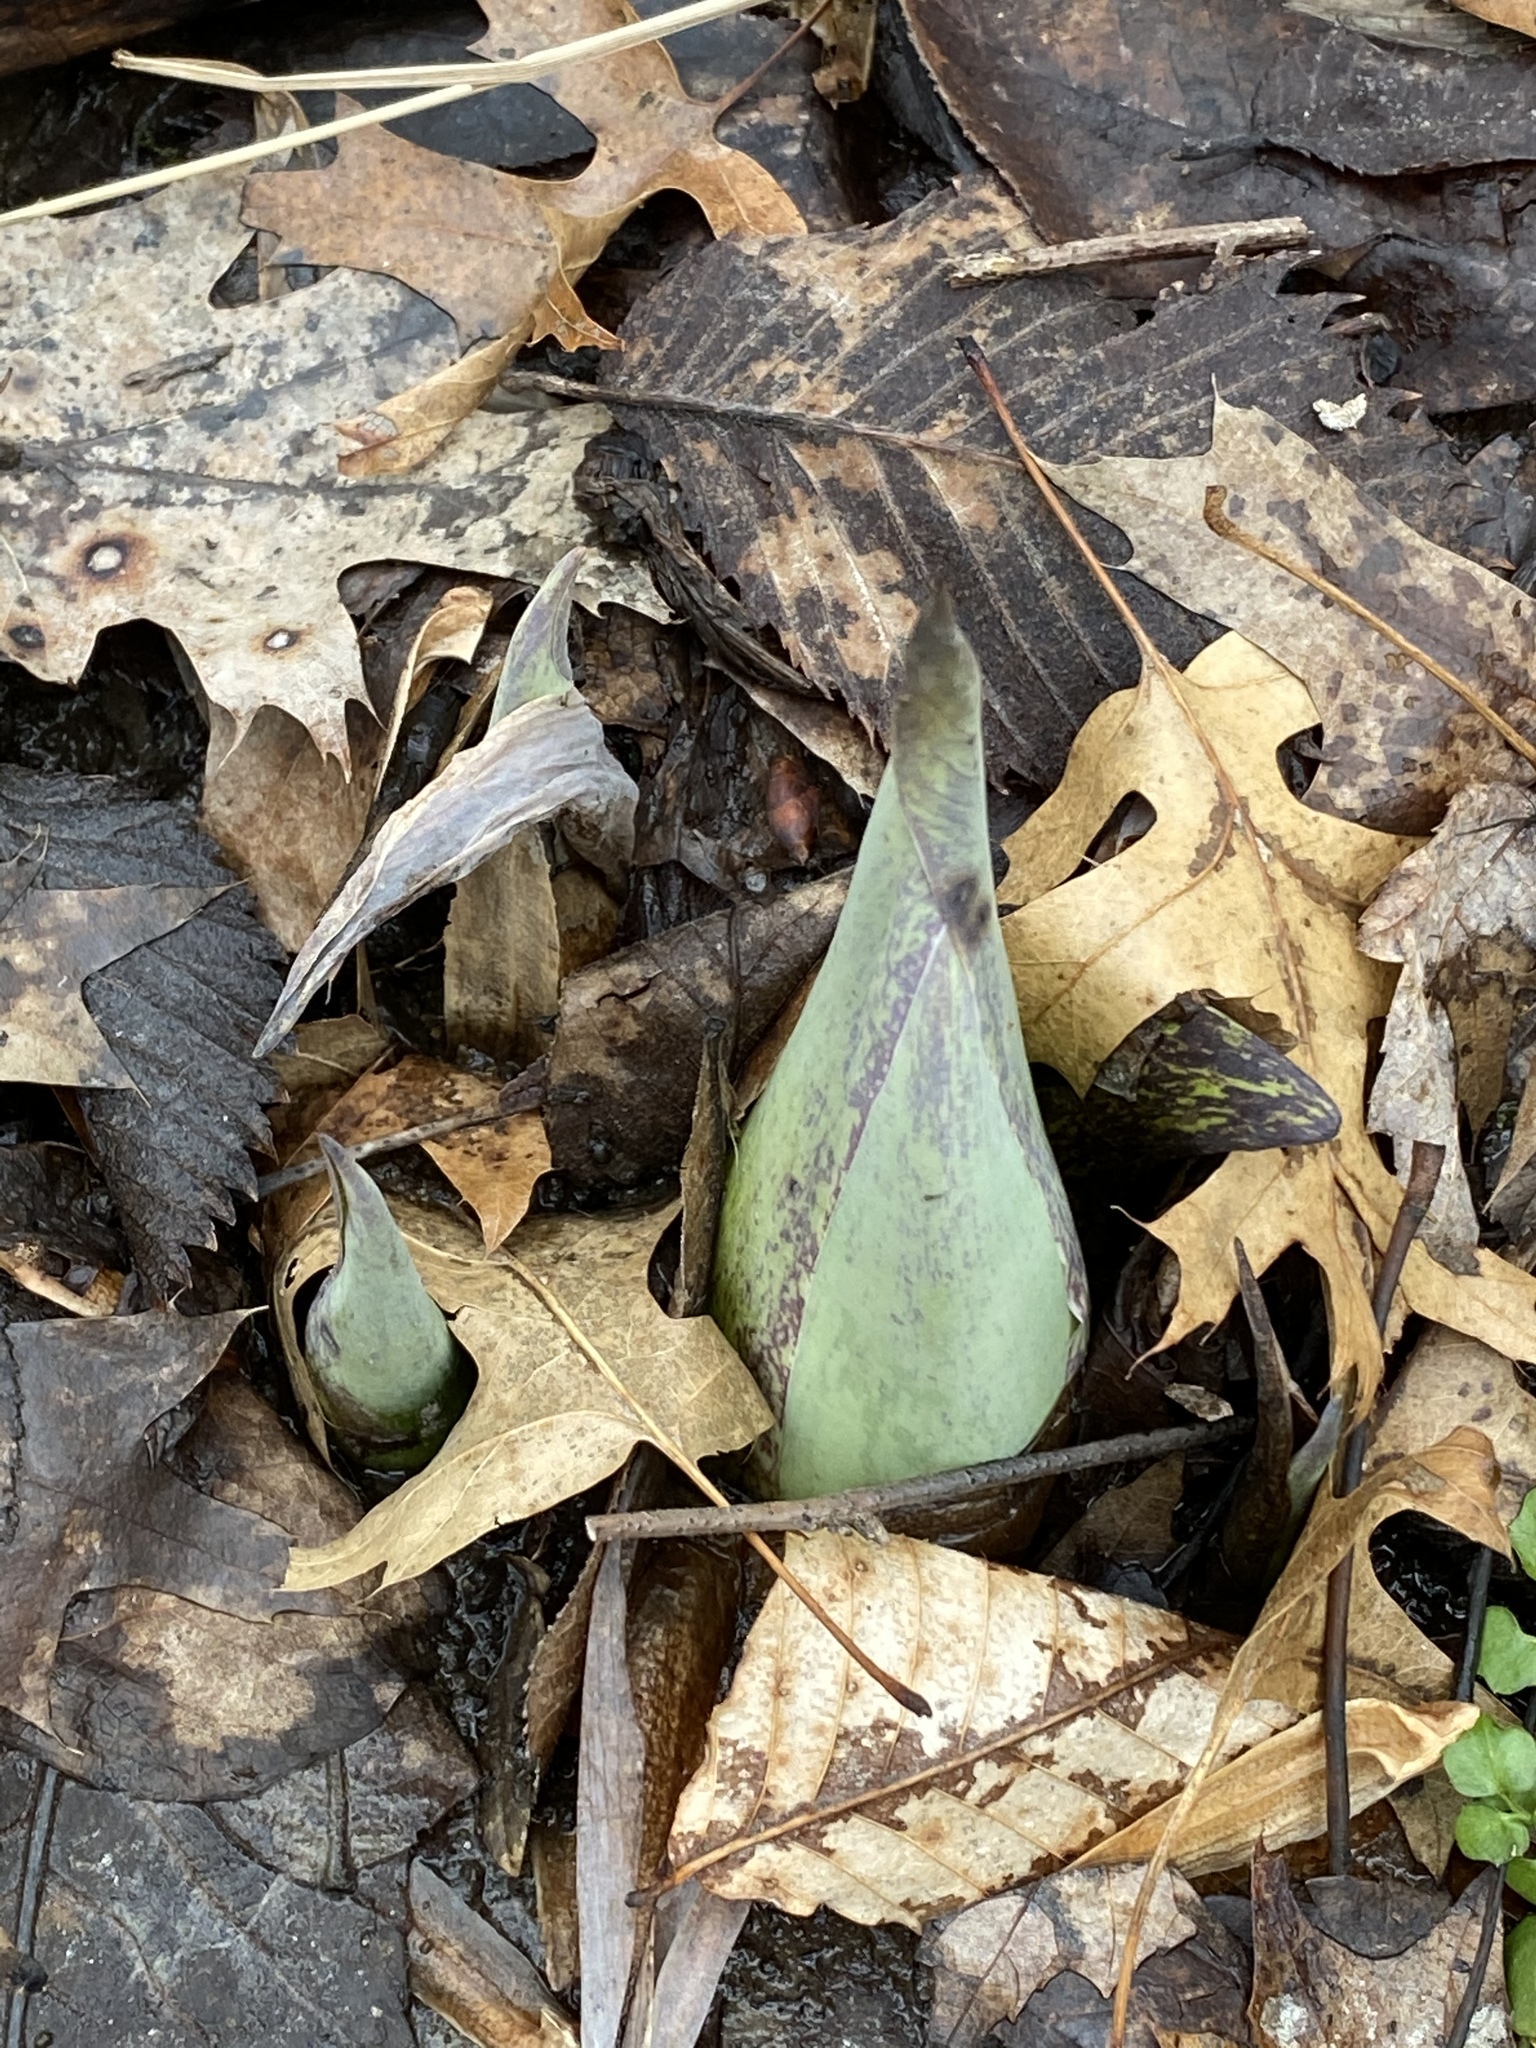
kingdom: Plantae
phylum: Tracheophyta
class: Liliopsida
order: Alismatales
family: Araceae
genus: Symplocarpus
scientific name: Symplocarpus foetidus
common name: Eastern skunk cabbage
